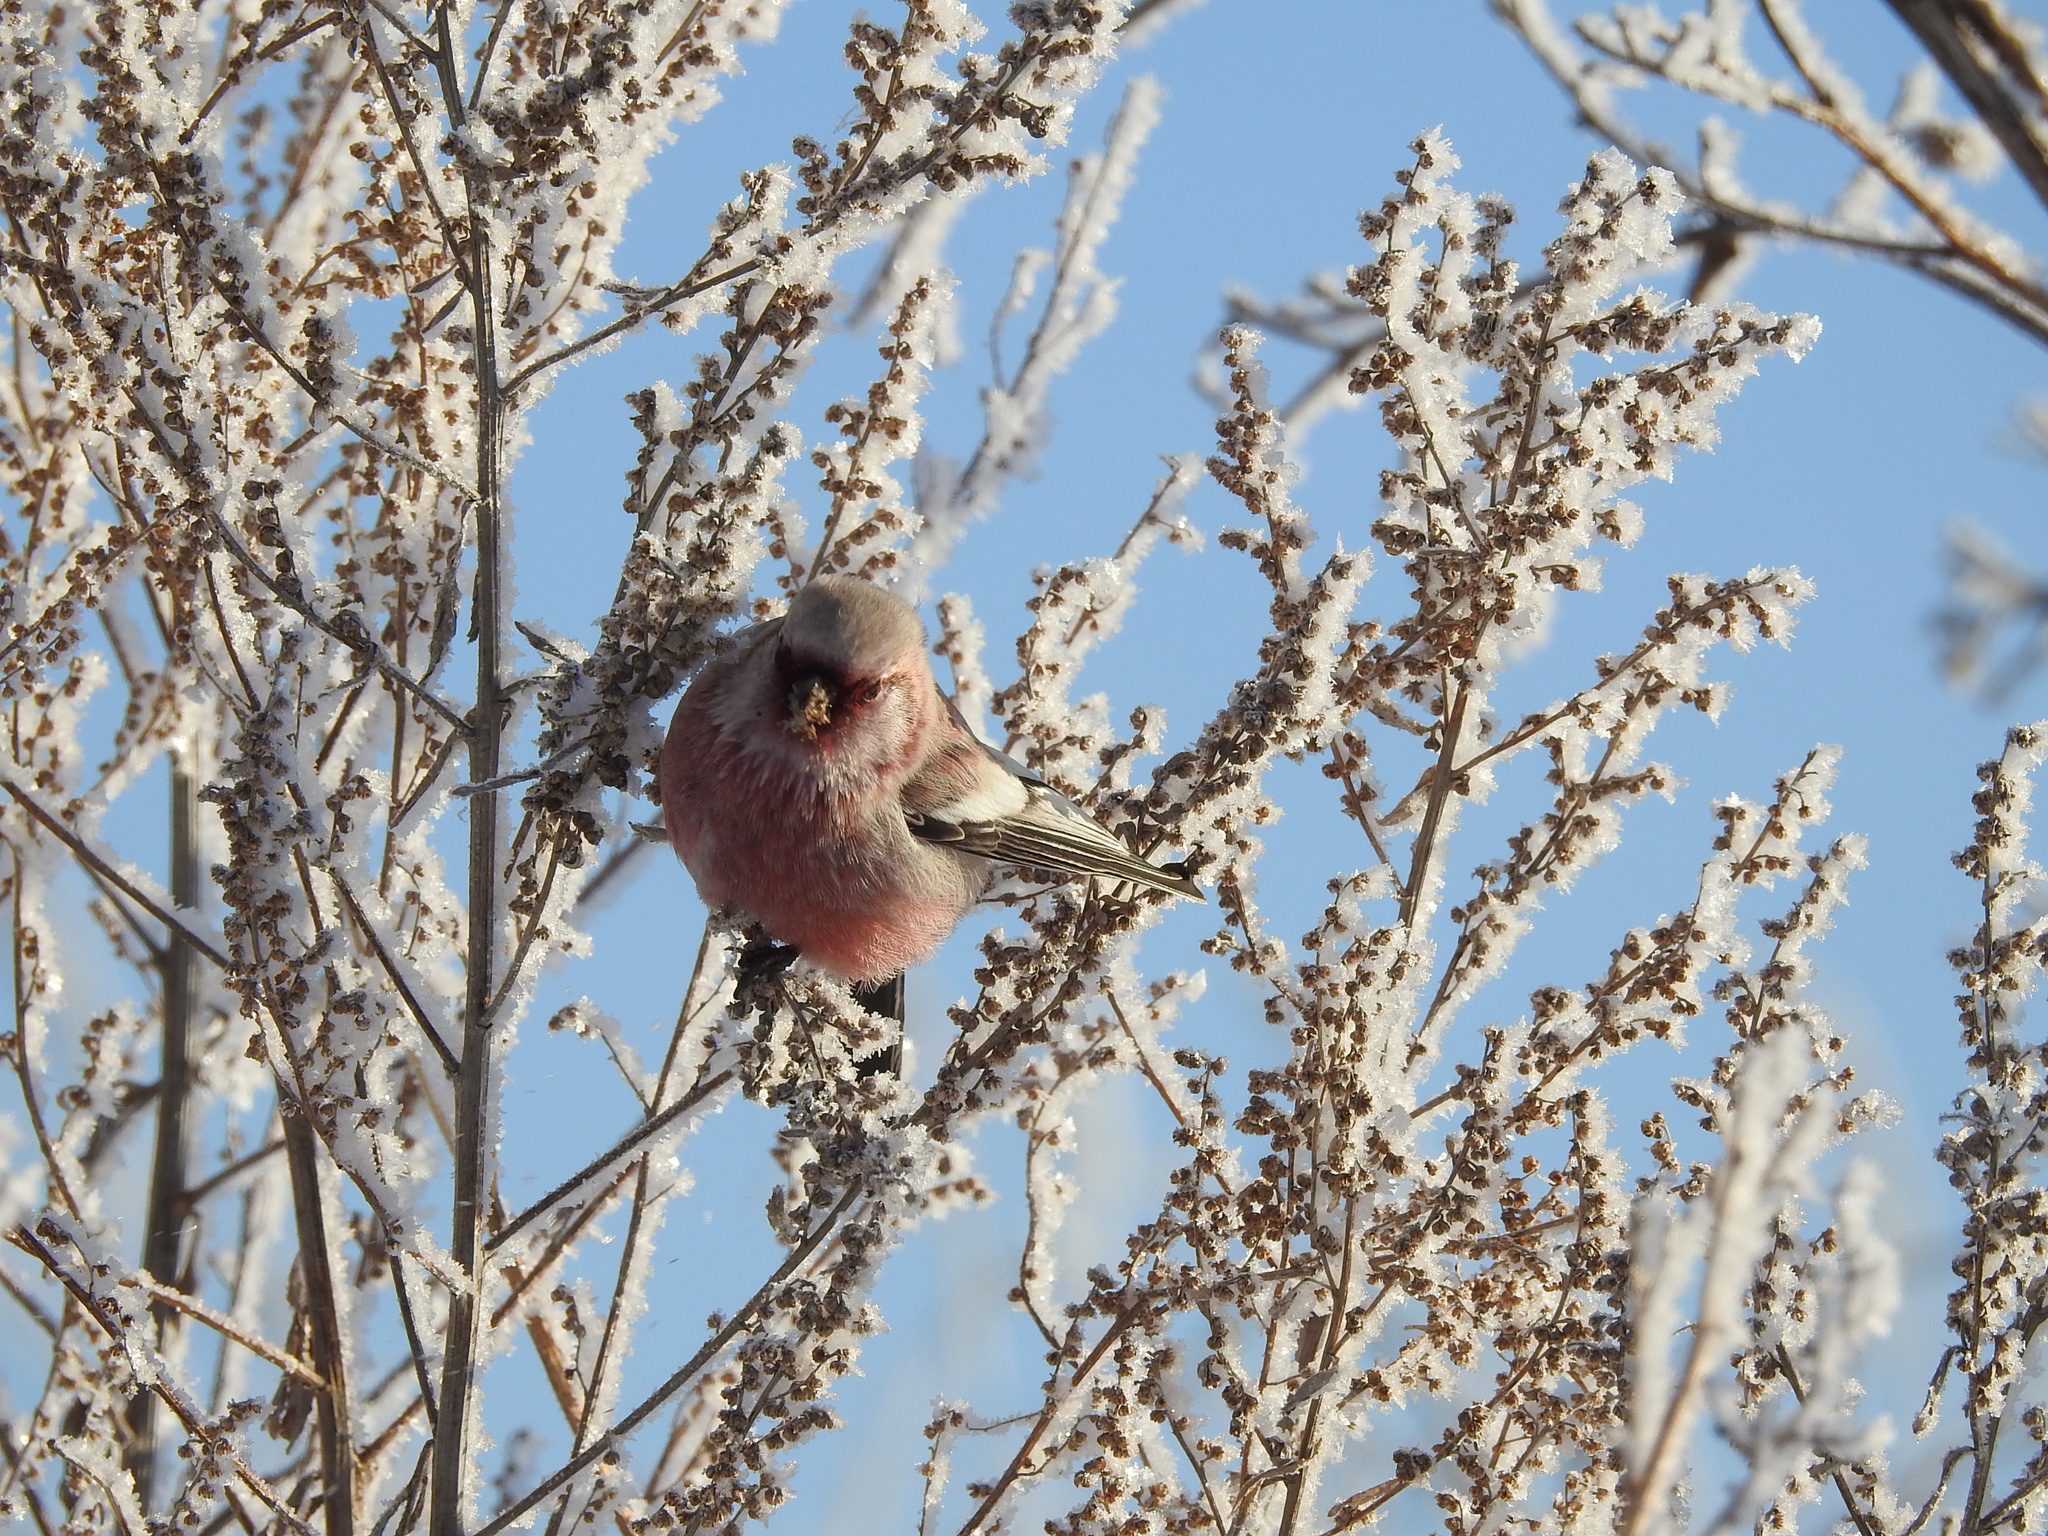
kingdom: Animalia
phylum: Chordata
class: Aves
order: Passeriformes
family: Fringillidae
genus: Carpodacus
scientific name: Carpodacus sibiricus
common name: Long-tailed rosefinch
